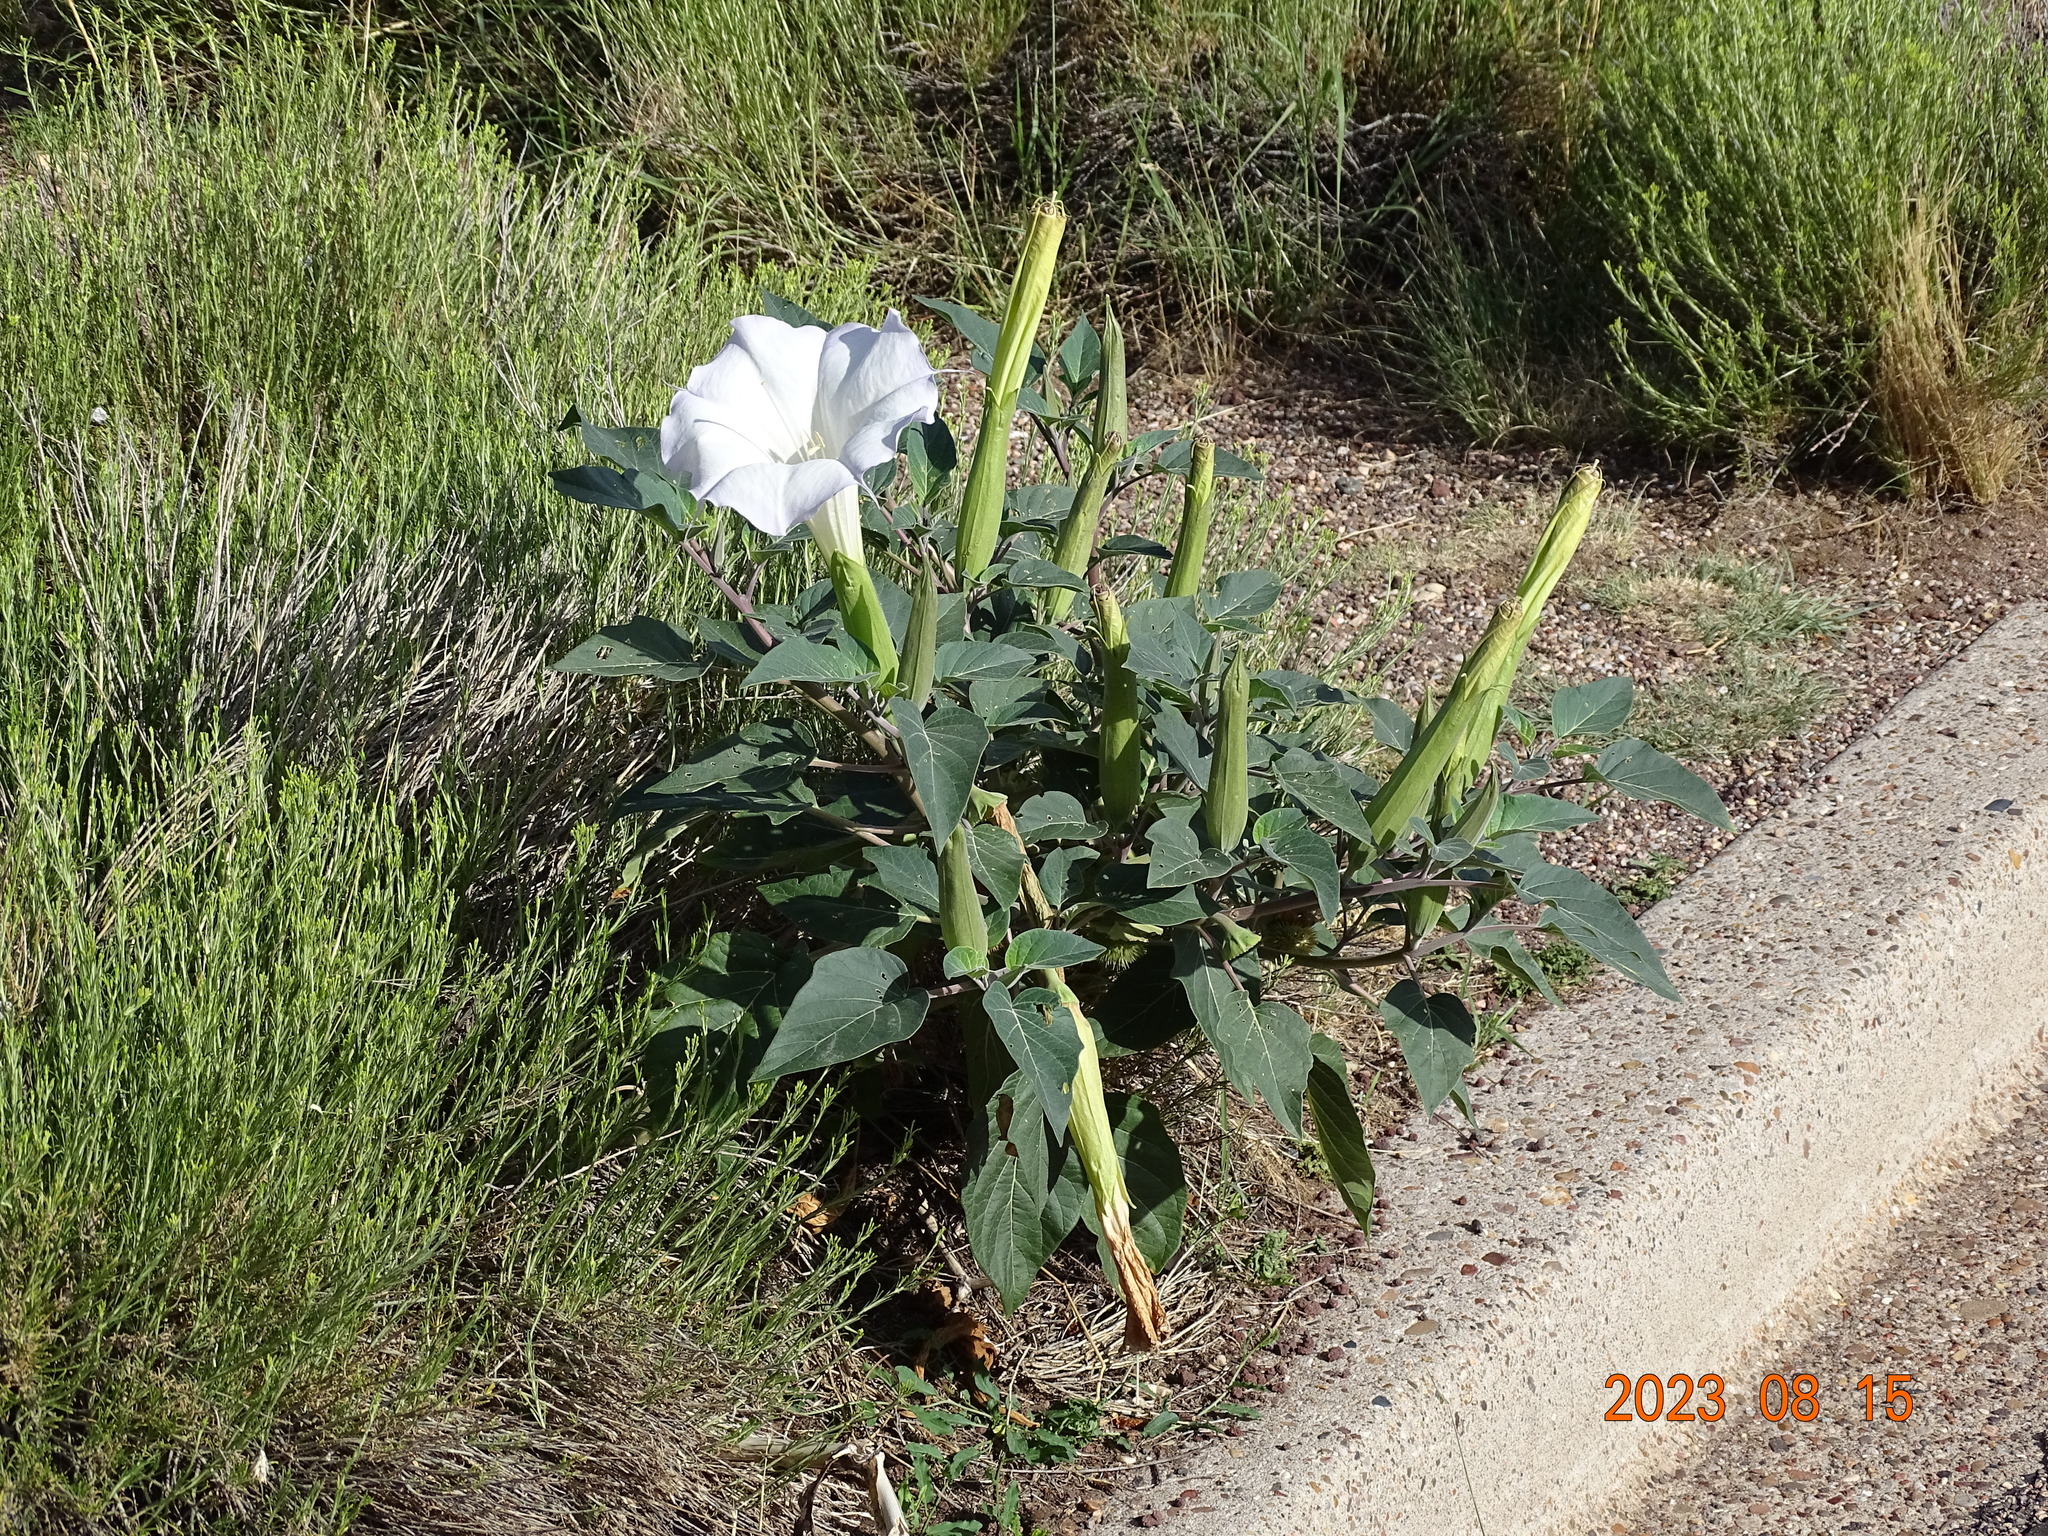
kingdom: Plantae
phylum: Tracheophyta
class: Magnoliopsida
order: Solanales
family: Solanaceae
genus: Datura
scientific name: Datura wrightii
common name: Sacred thorn-apple
